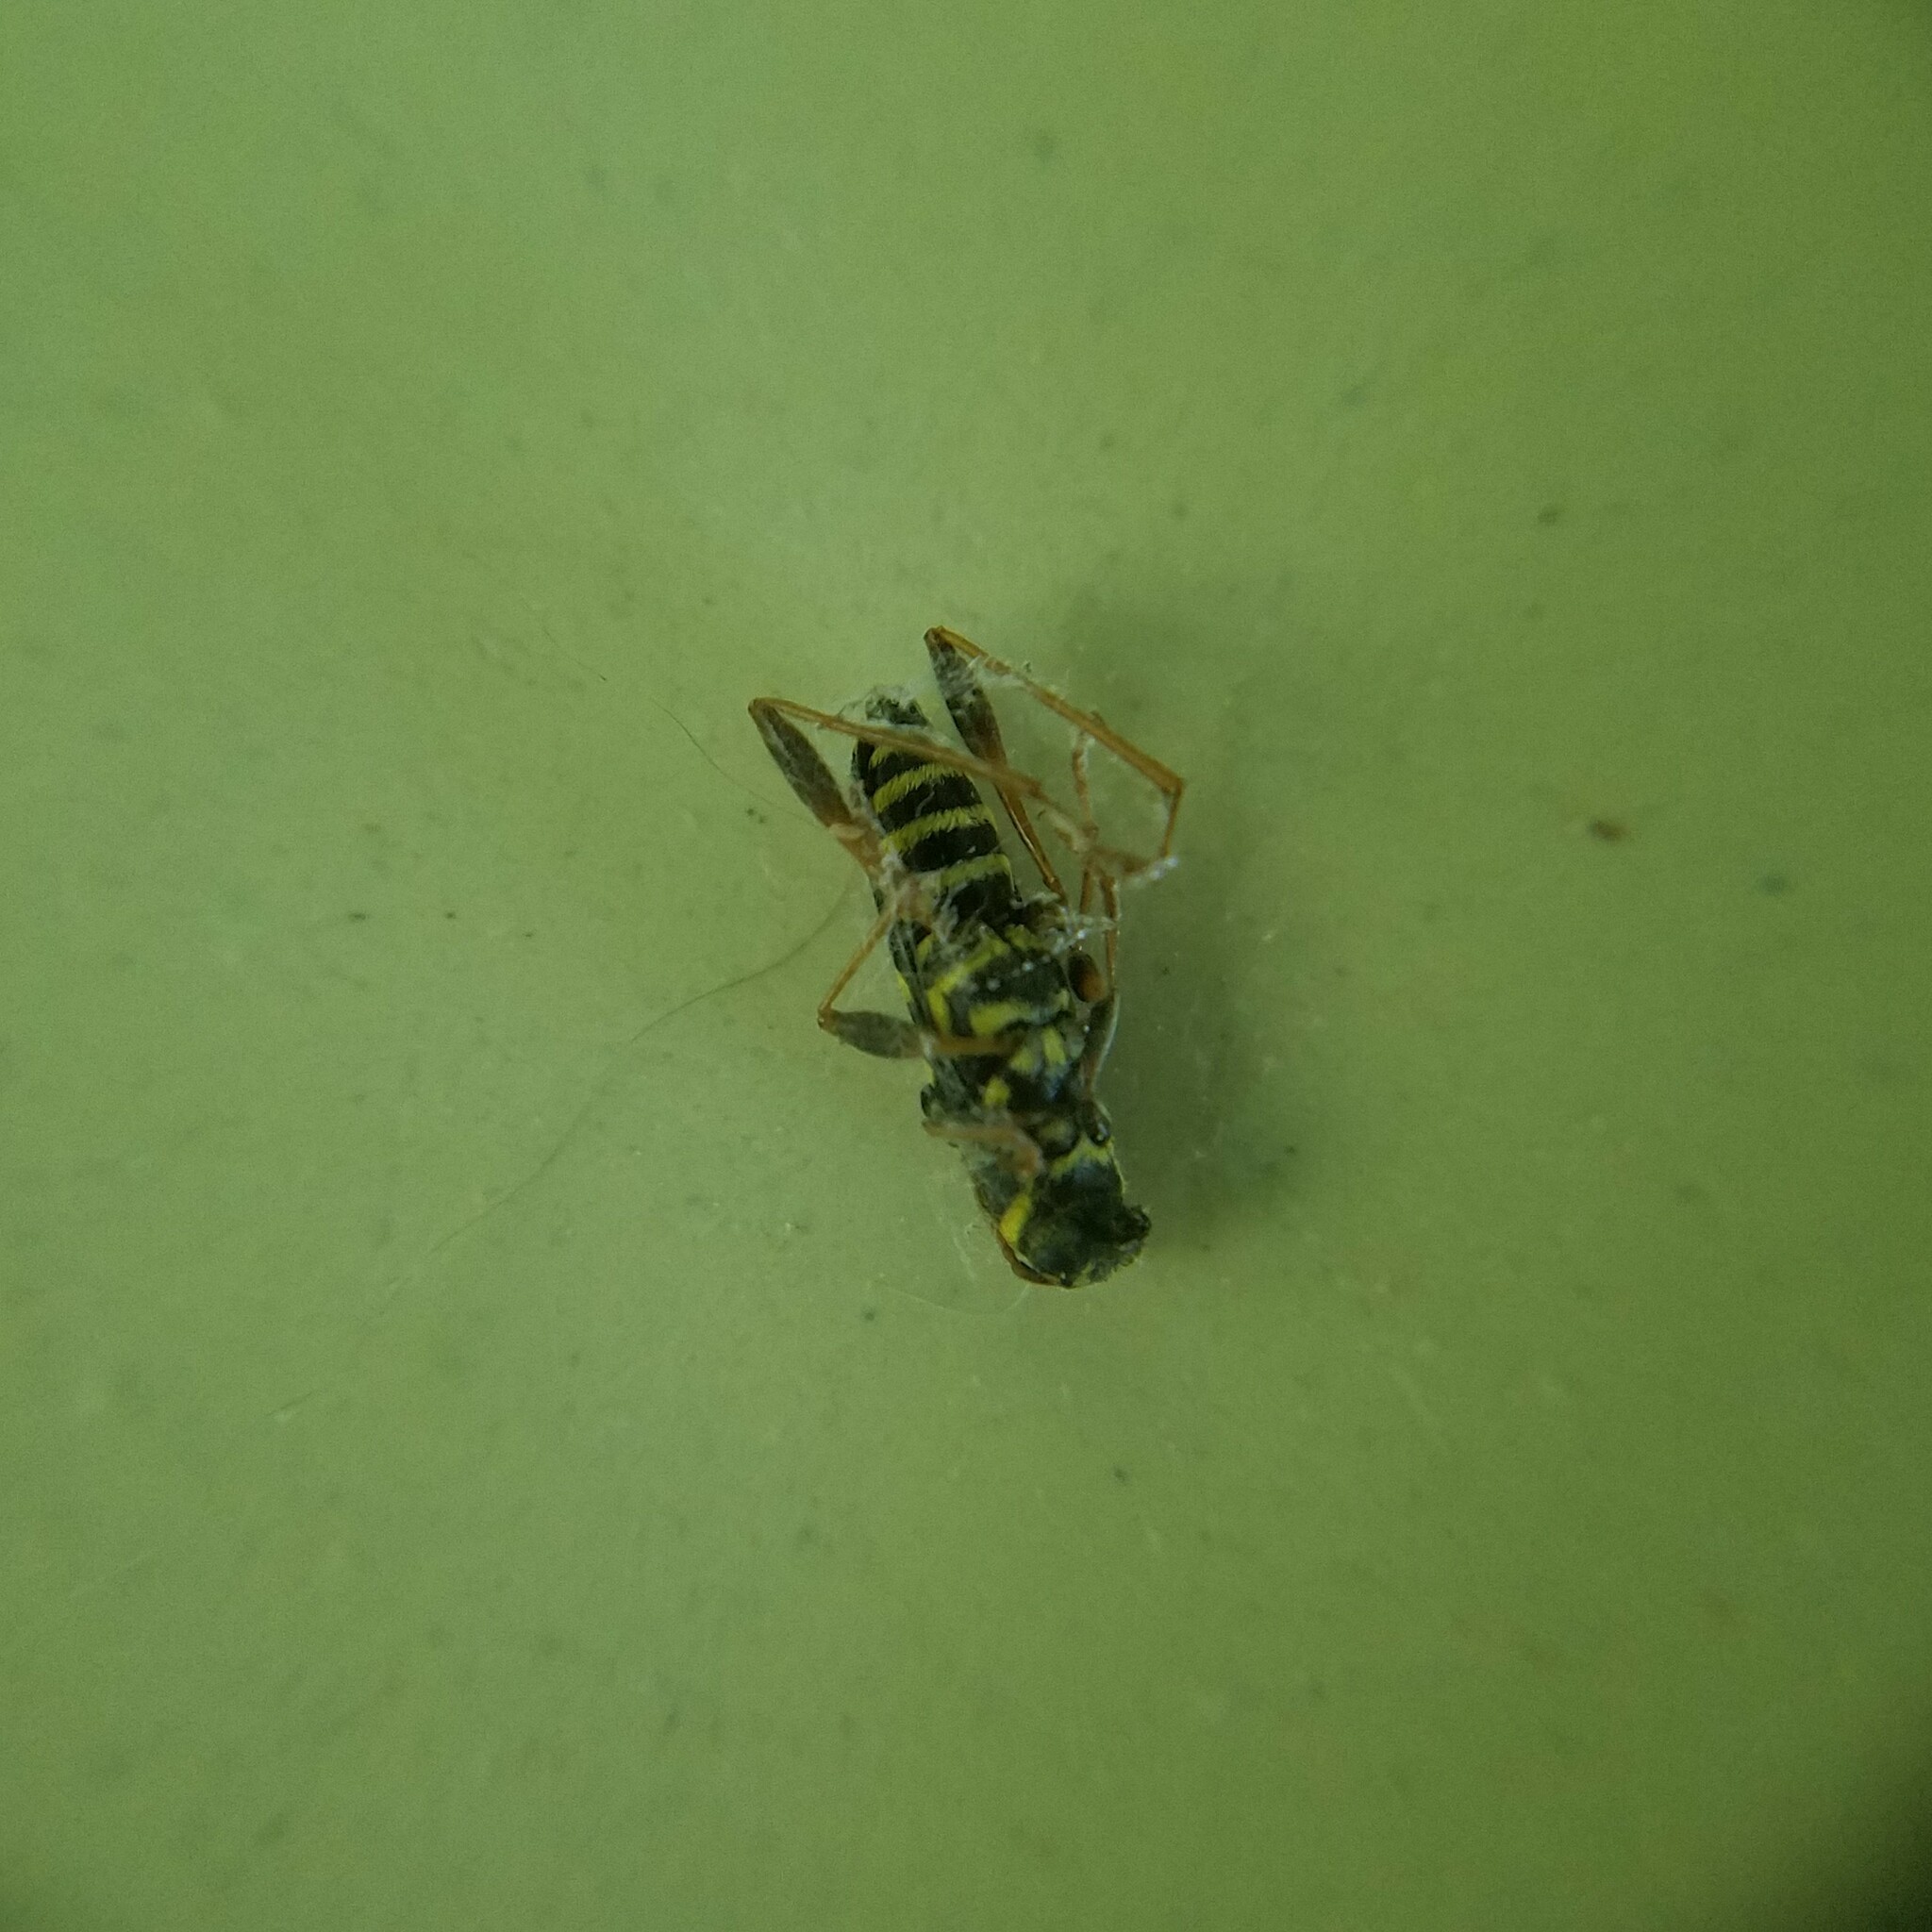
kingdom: Animalia
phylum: Arthropoda
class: Insecta
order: Coleoptera
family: Cerambycidae
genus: Clytus
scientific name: Clytus ruricola
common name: Round-necked longhorn beetle
